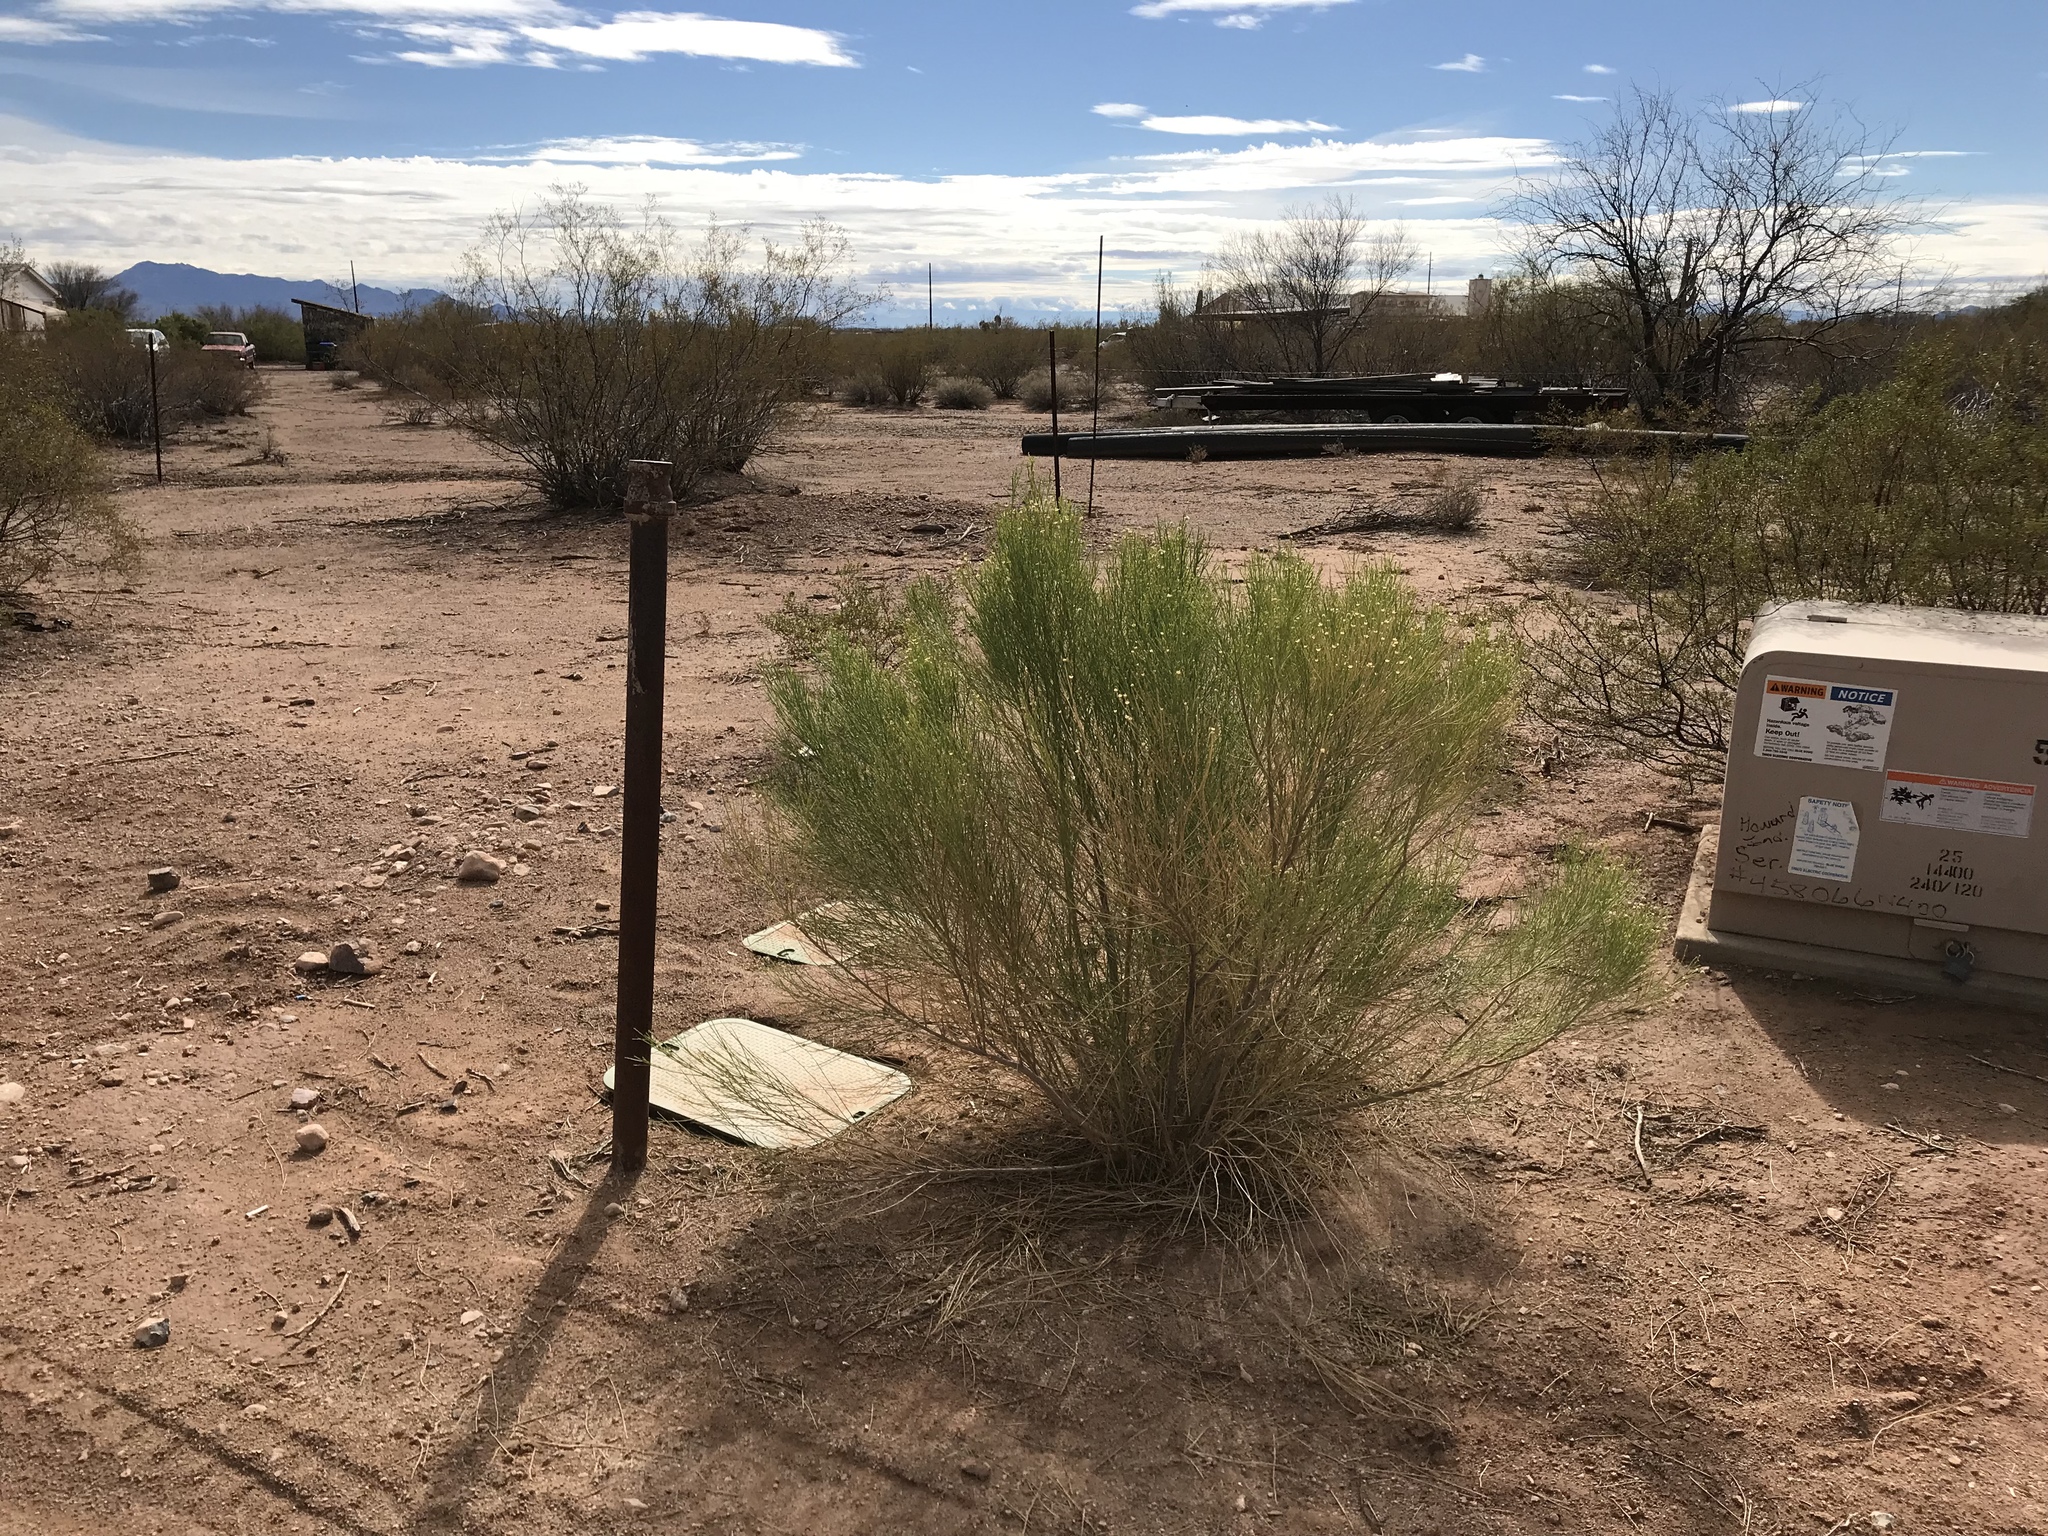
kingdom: Plantae
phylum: Tracheophyta
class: Magnoliopsida
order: Asterales
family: Asteraceae
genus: Baccharis
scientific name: Baccharis sarothroides
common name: Desert-broom
